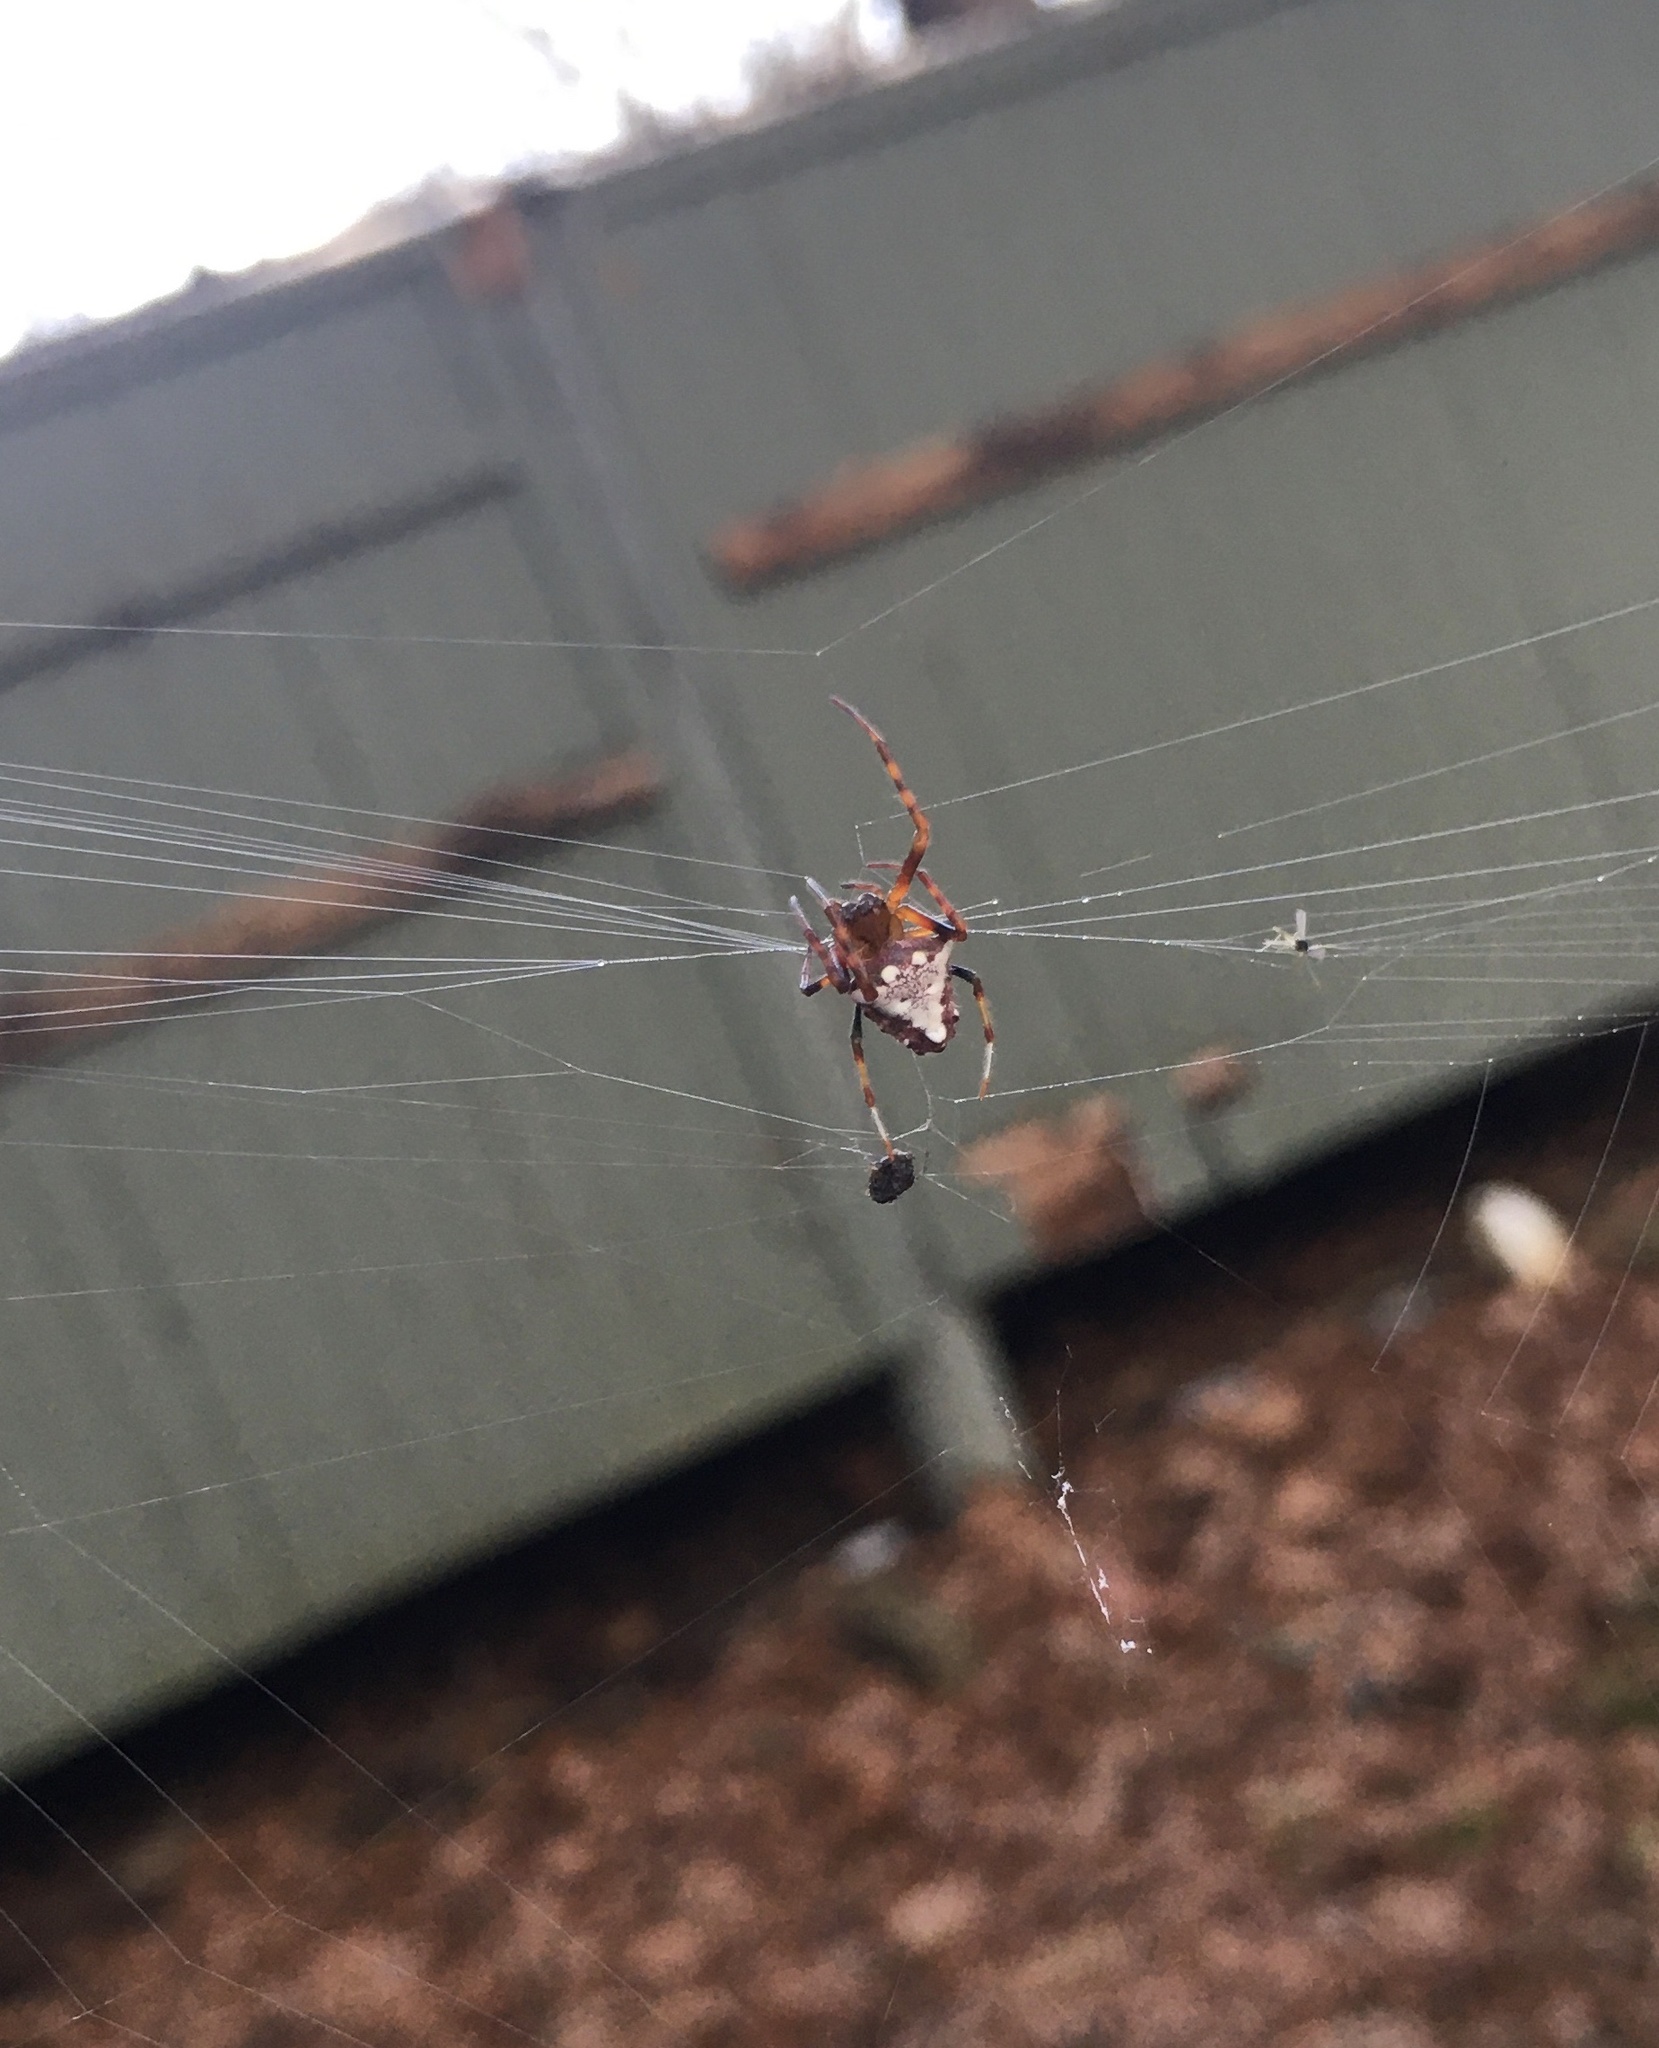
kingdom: Animalia
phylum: Arthropoda
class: Arachnida
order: Araneae
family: Araneidae
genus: Verrucosa
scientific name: Verrucosa arenata
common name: Orb weavers
